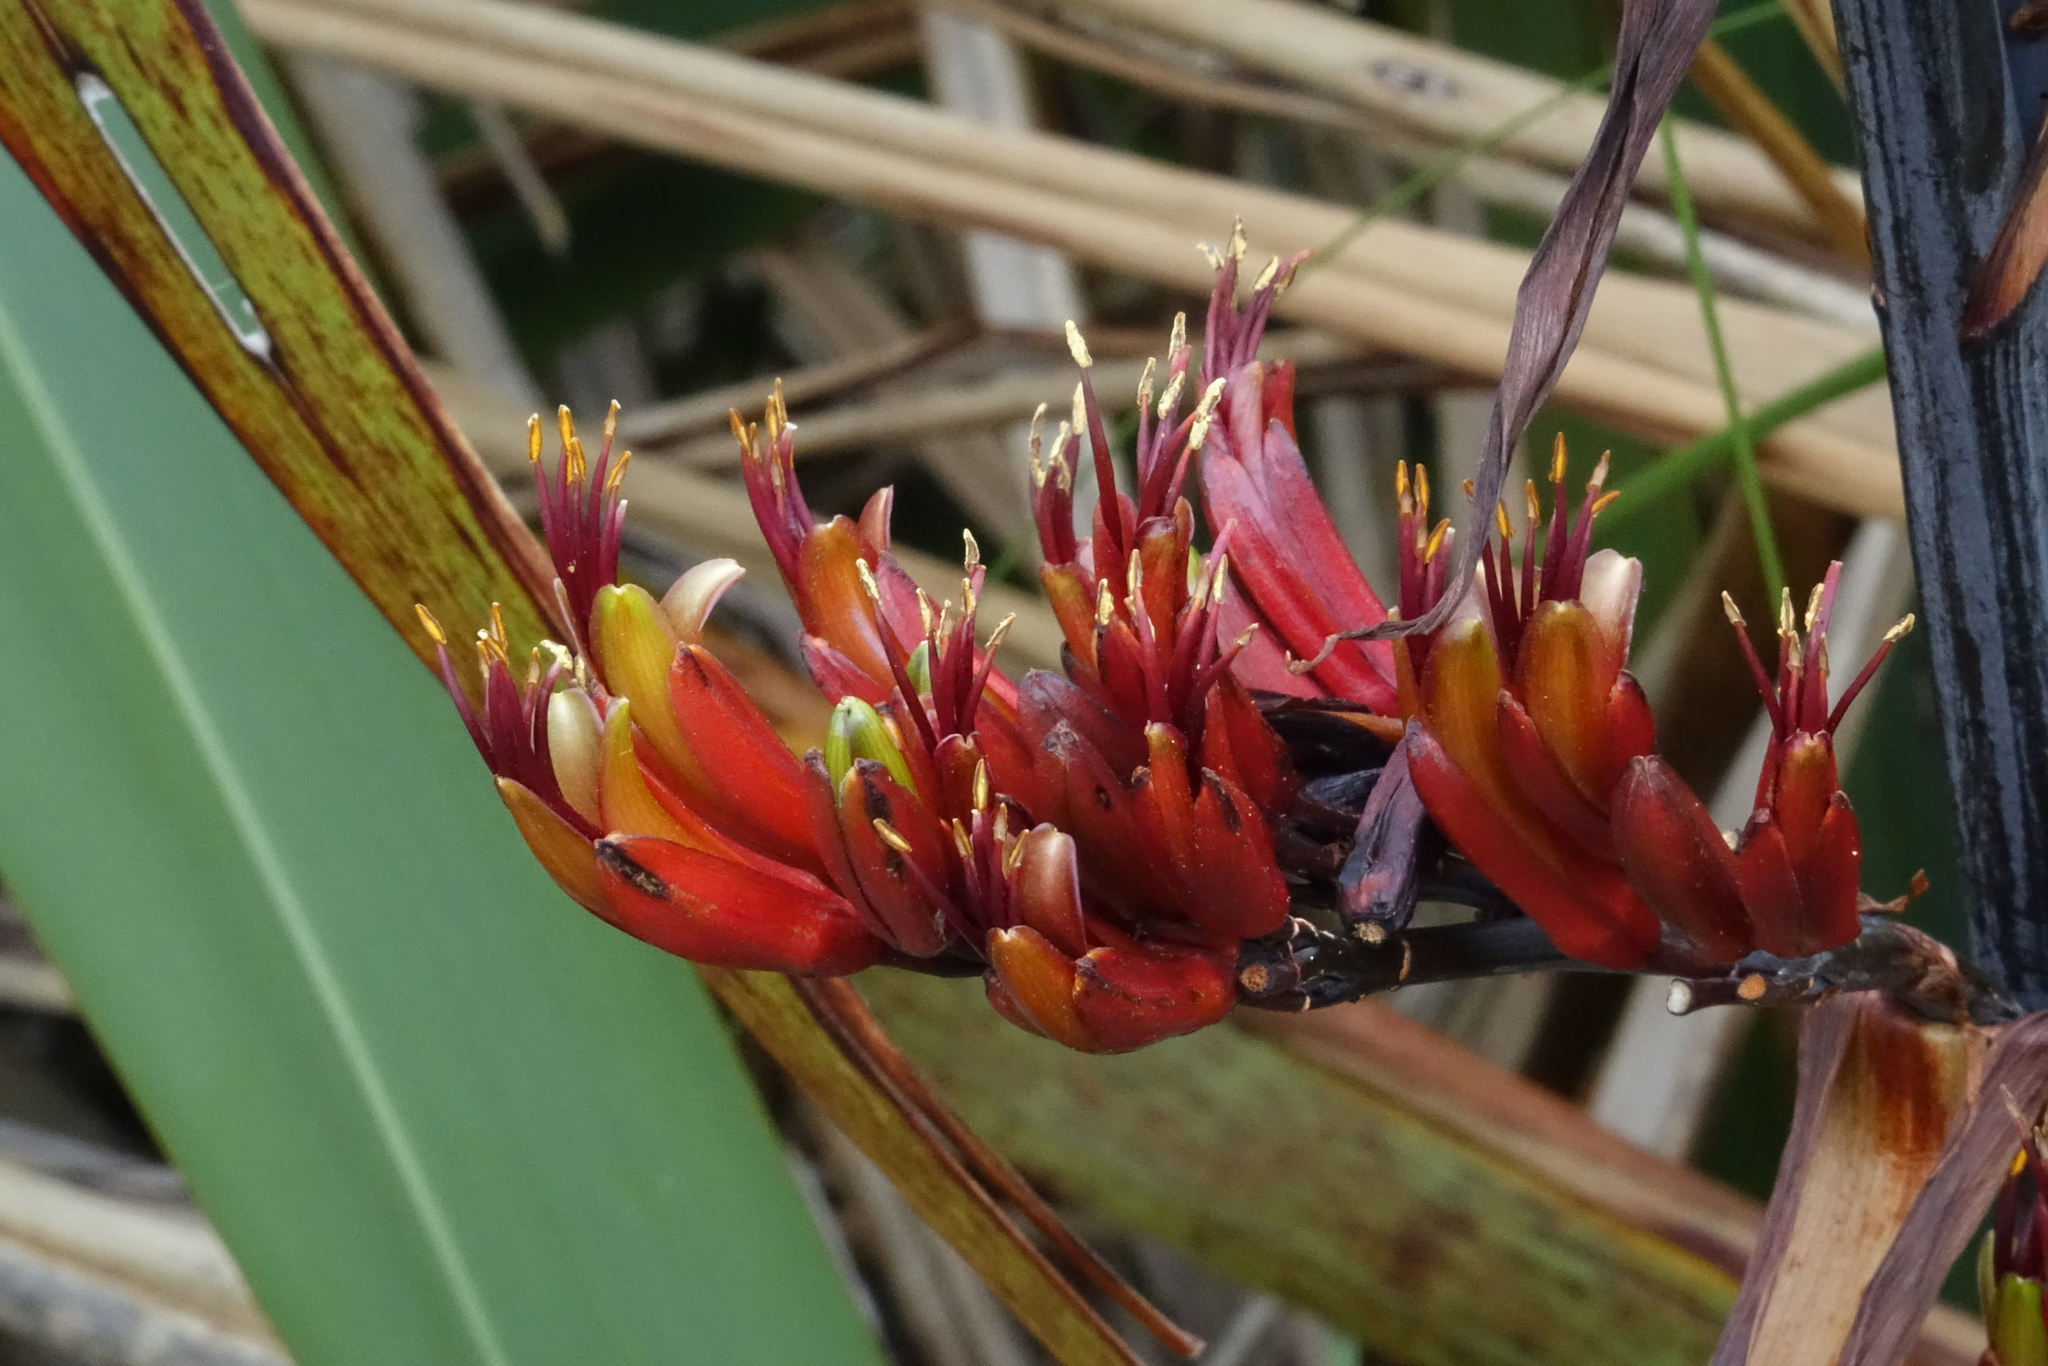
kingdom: Plantae
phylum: Tracheophyta
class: Liliopsida
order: Asparagales
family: Asphodelaceae
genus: Phormium
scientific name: Phormium tenax
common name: New zealand flax
